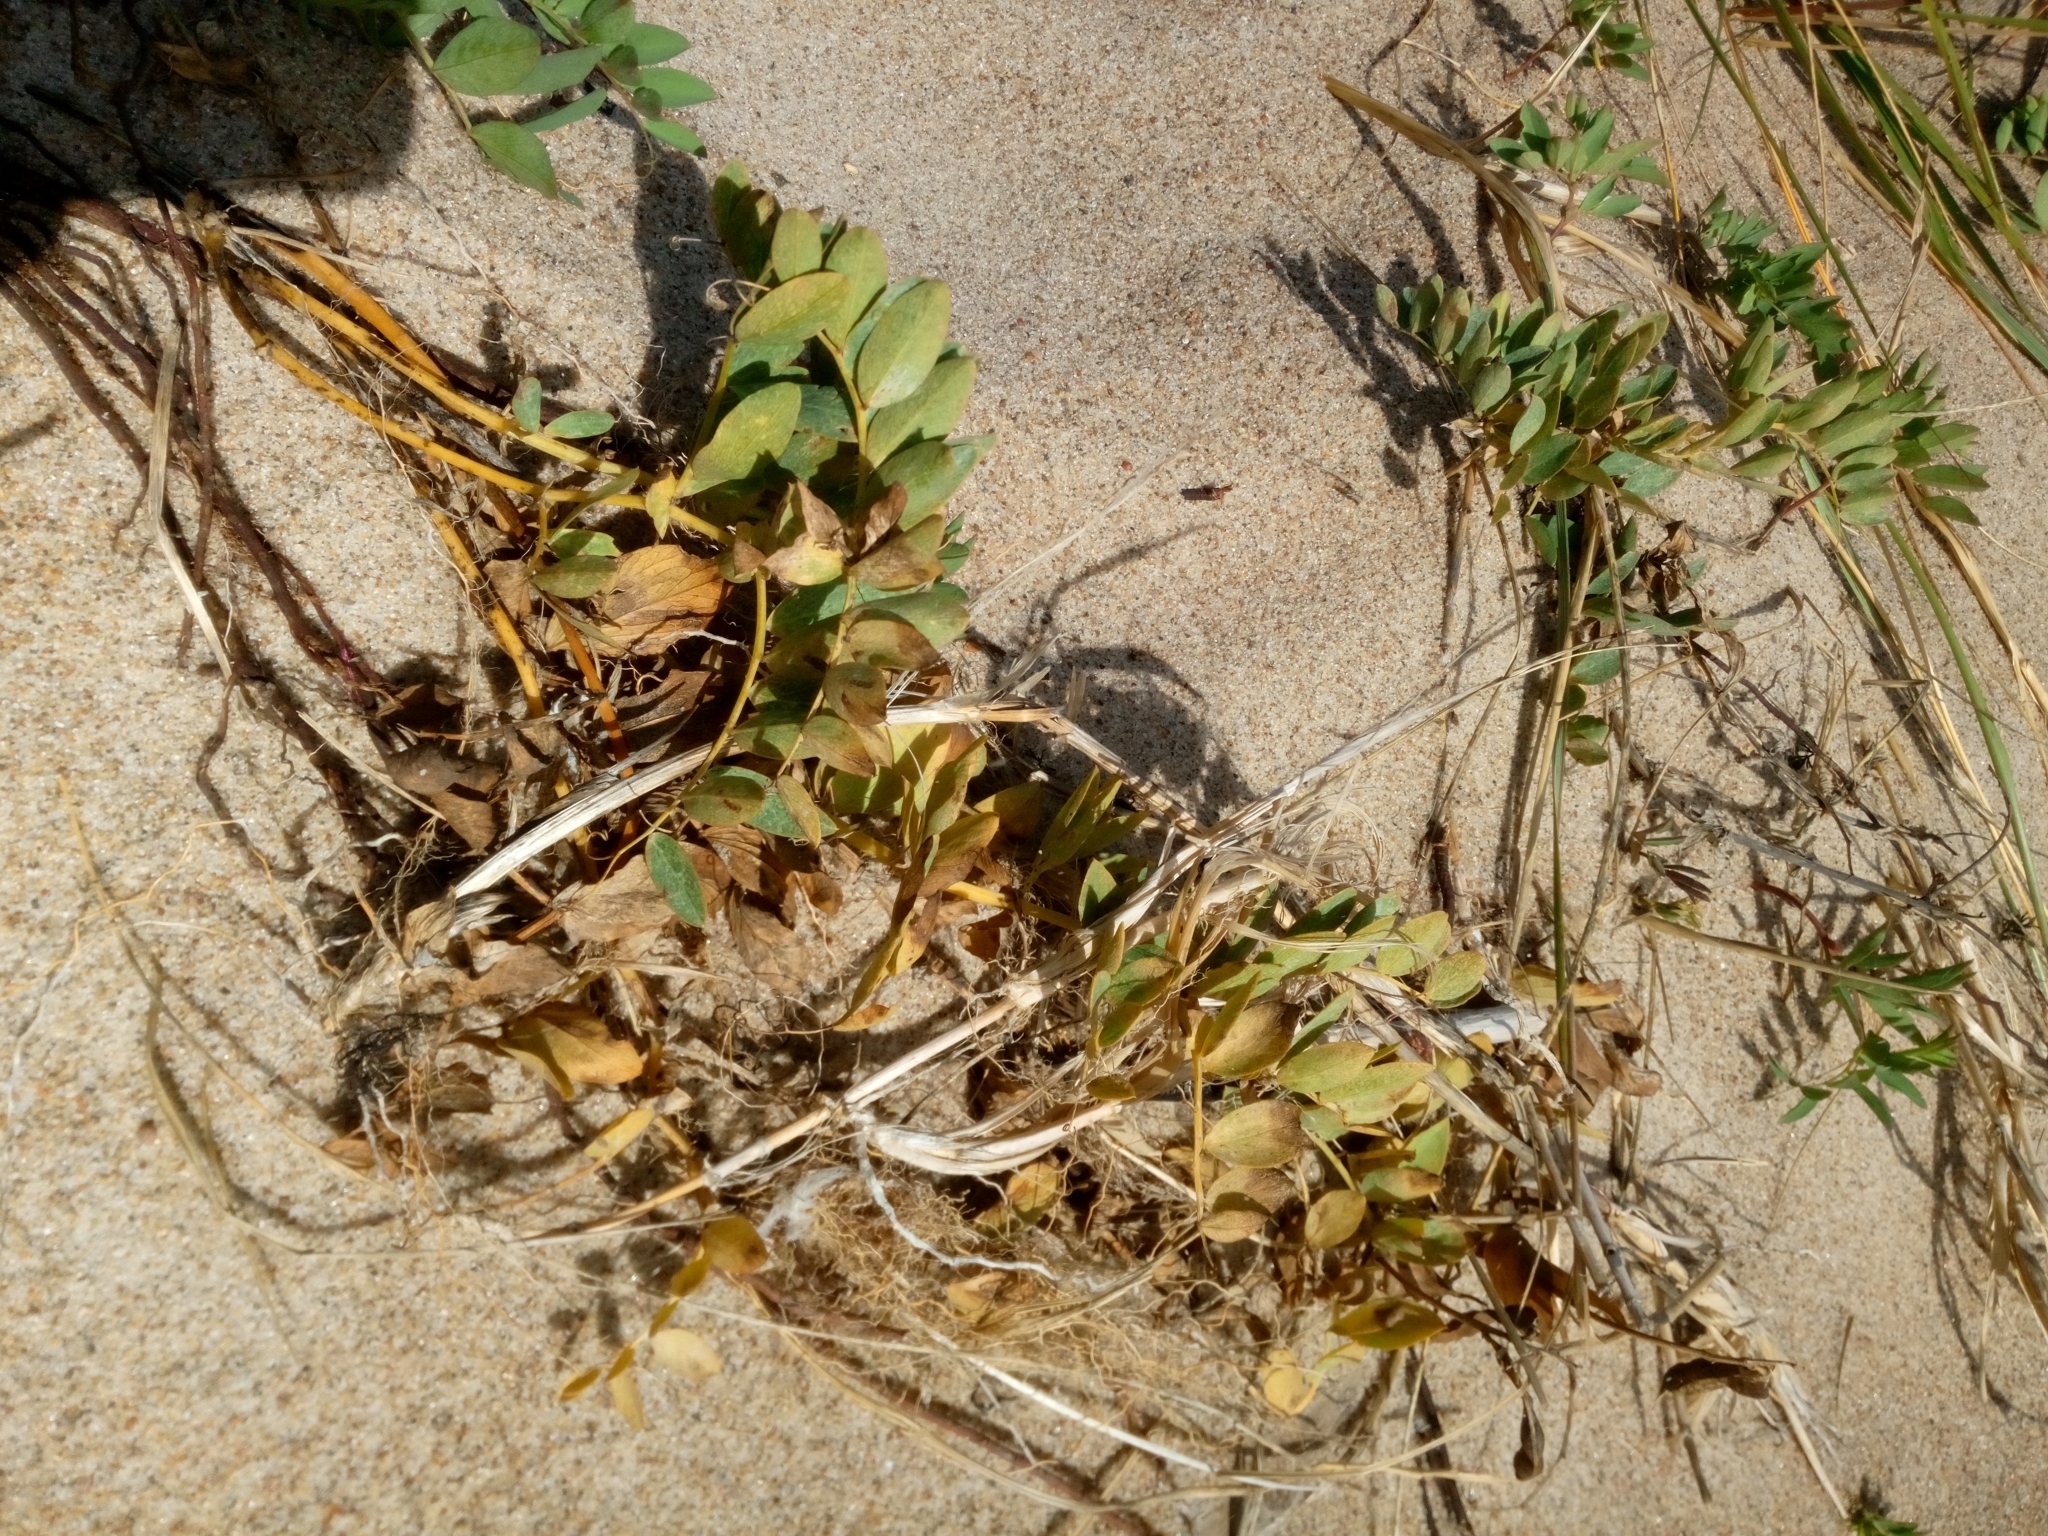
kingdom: Plantae
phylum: Tracheophyta
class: Magnoliopsida
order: Fabales
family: Fabaceae
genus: Lathyrus
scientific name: Lathyrus japonicus
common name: Sea pea
